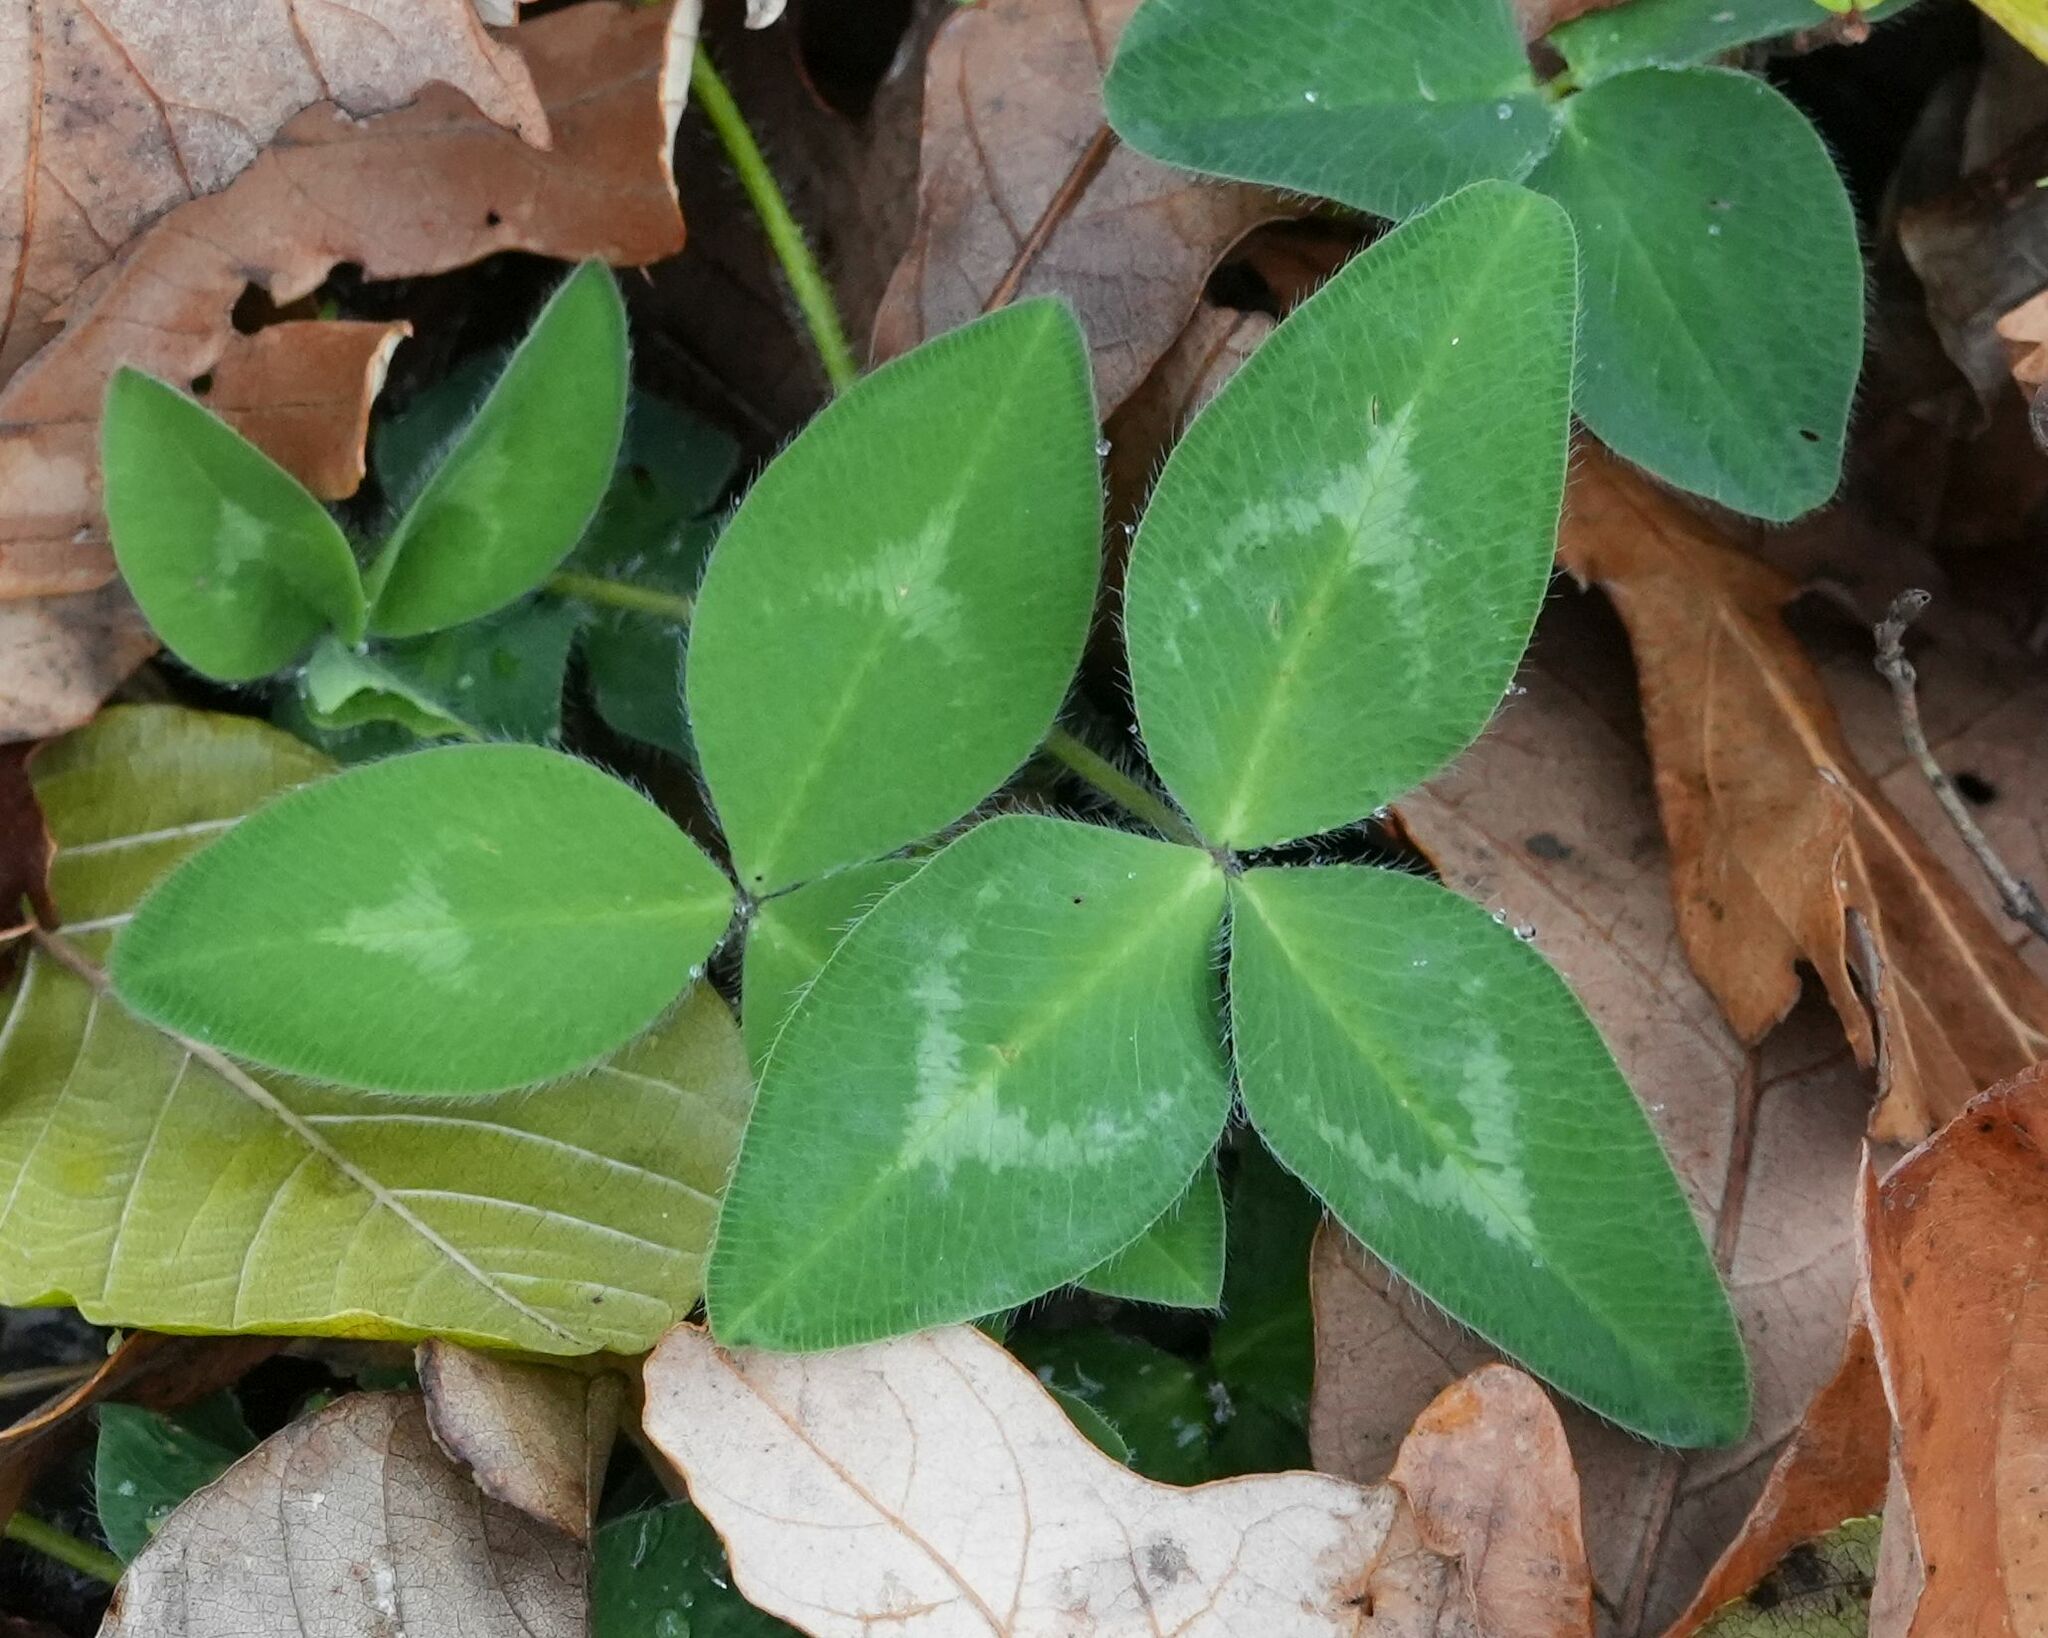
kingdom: Plantae
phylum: Tracheophyta
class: Magnoliopsida
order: Fabales
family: Fabaceae
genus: Trifolium
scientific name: Trifolium pratense
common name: Red clover
